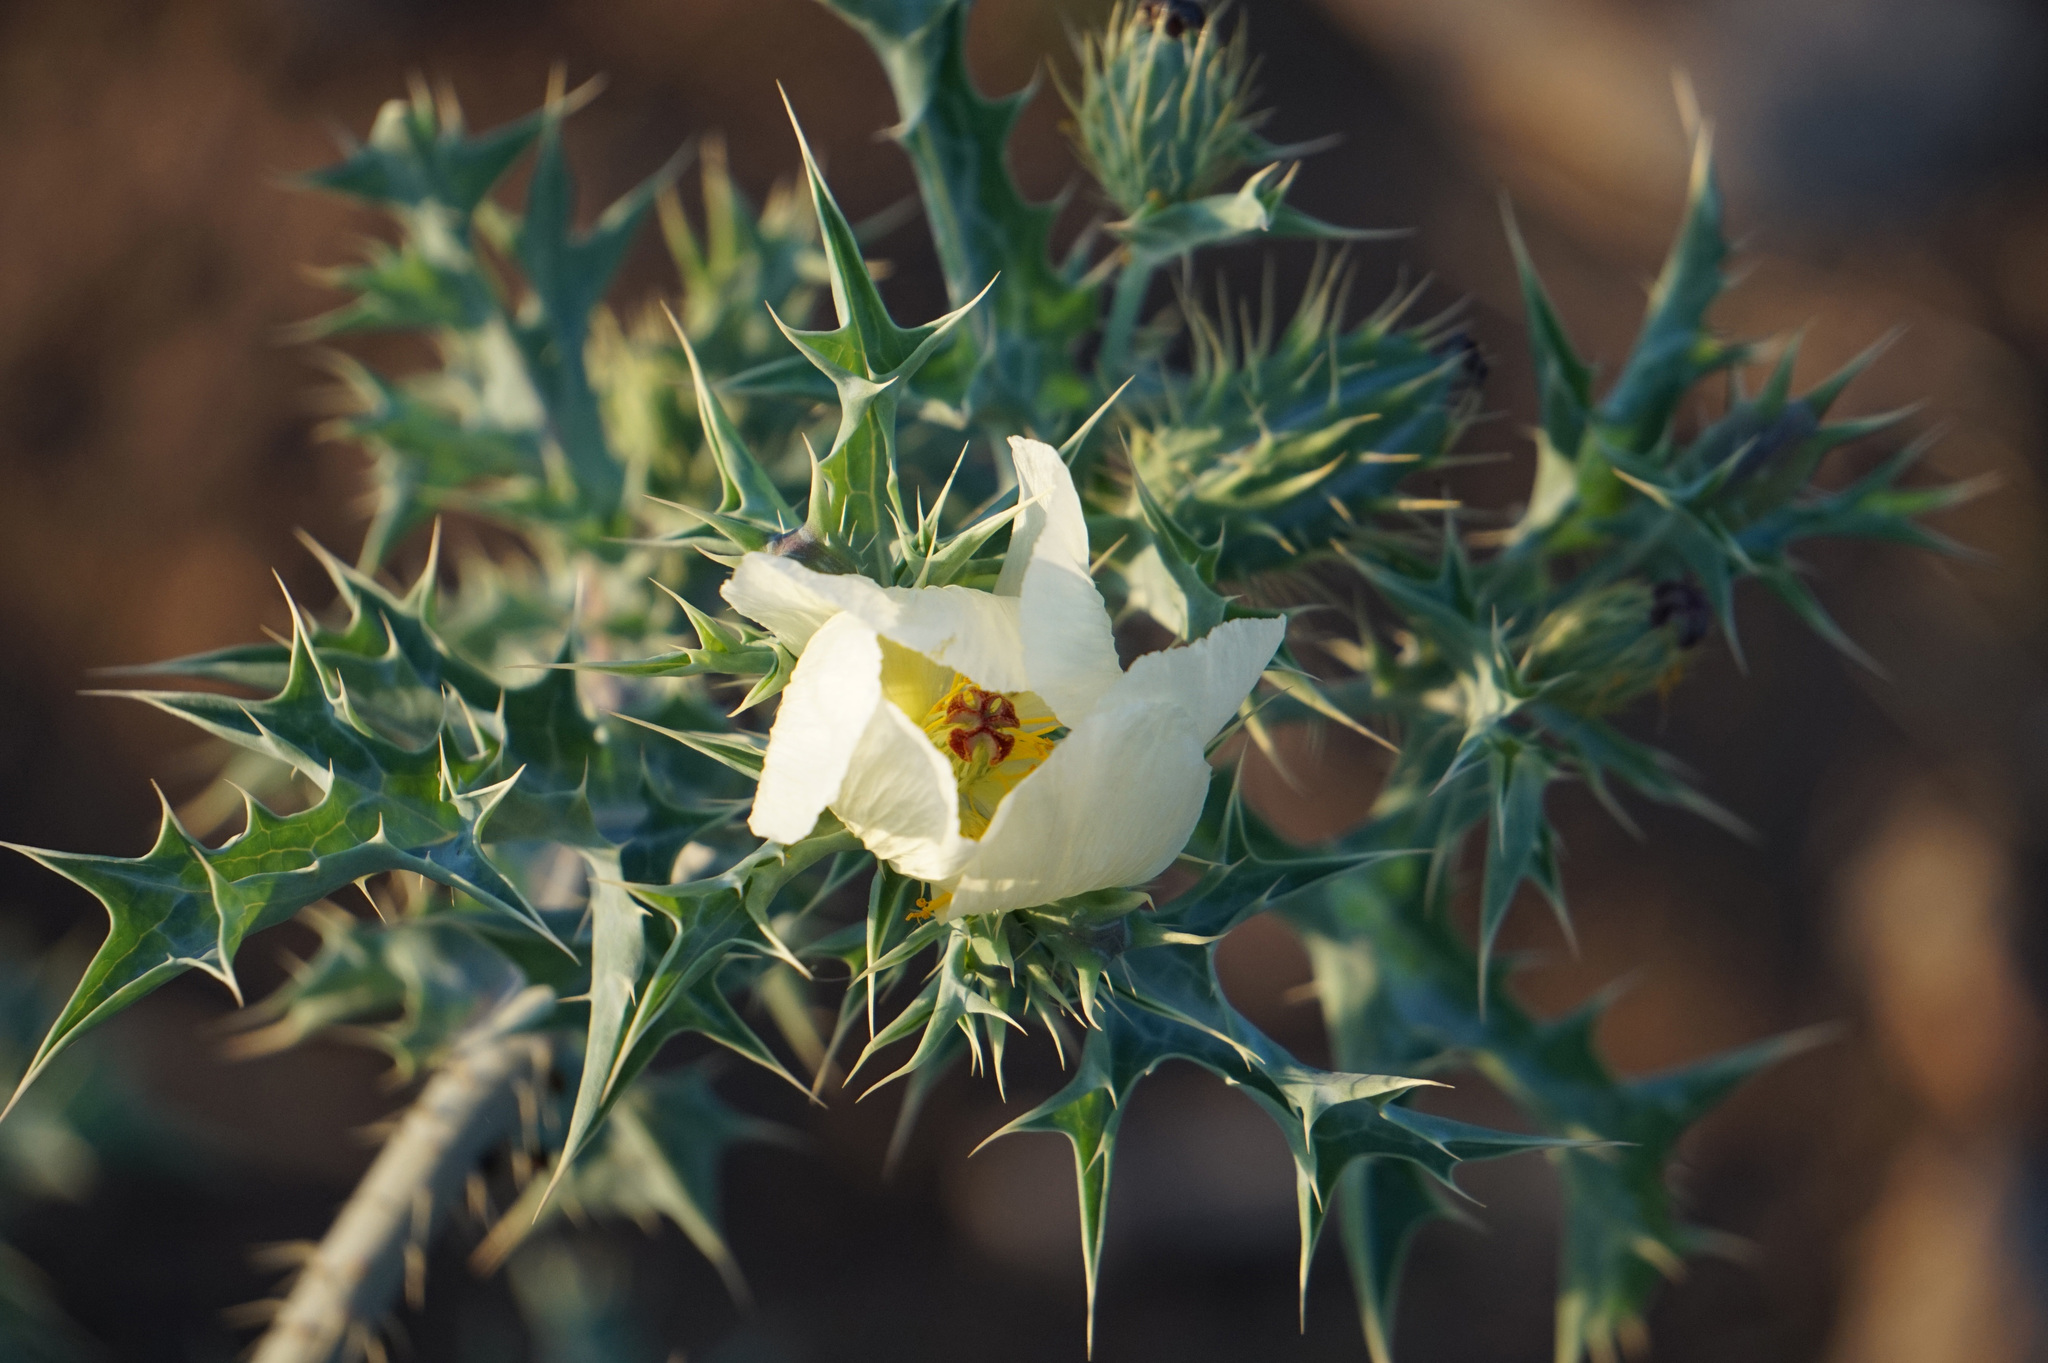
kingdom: Plantae
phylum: Tracheophyta
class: Magnoliopsida
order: Ranunculales
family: Papaveraceae
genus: Argemone
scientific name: Argemone ochroleuca
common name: White-flower mexican-poppy
